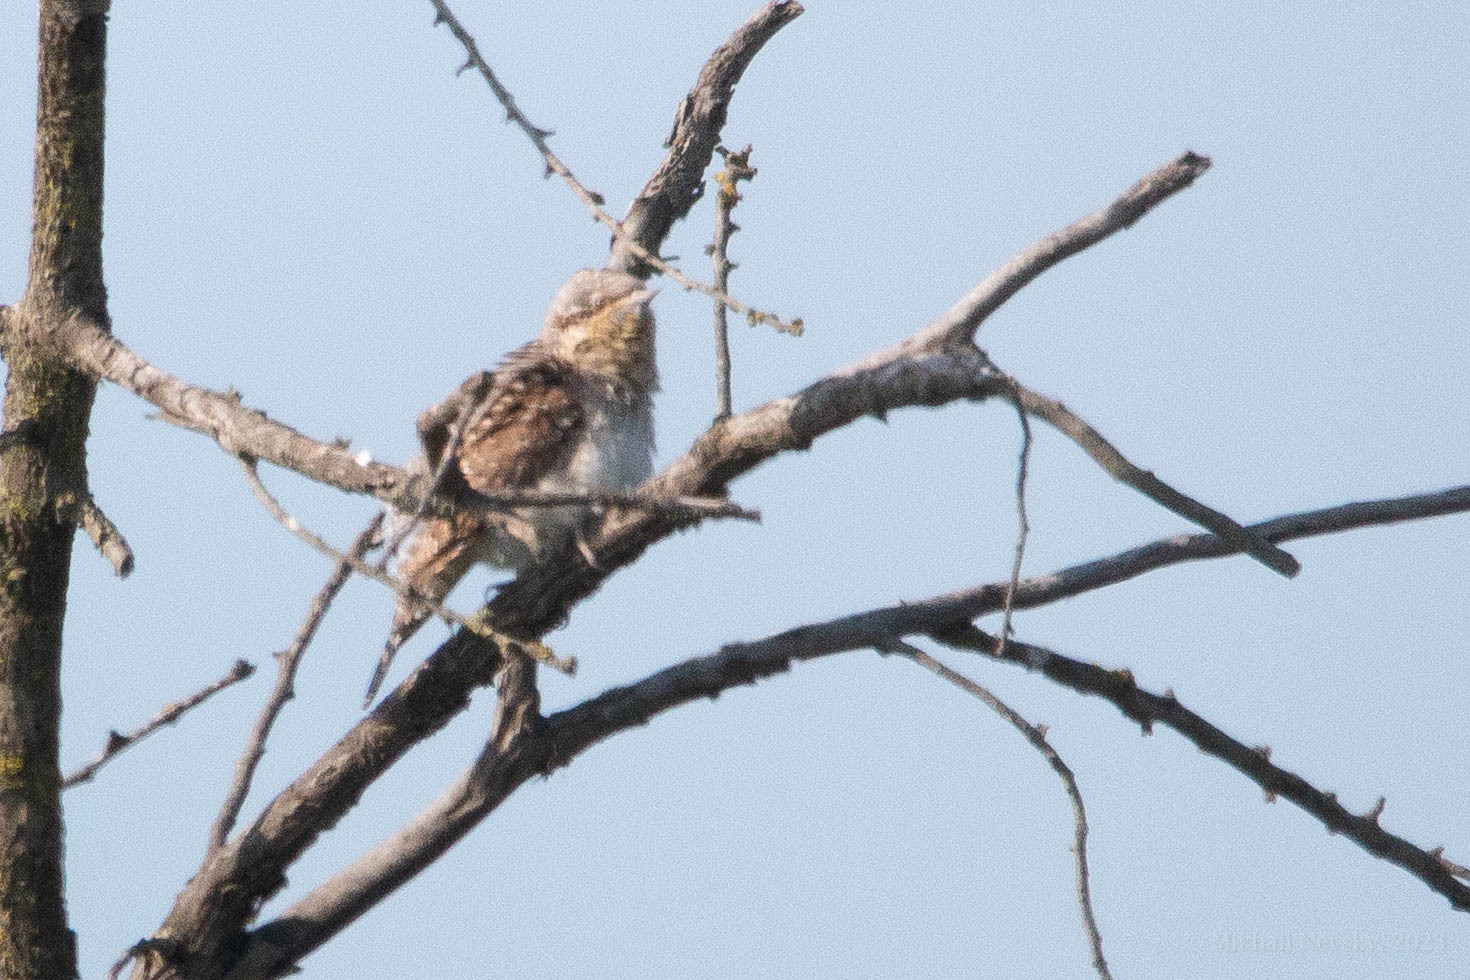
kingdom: Animalia
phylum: Chordata
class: Aves
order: Piciformes
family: Picidae
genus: Jynx
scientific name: Jynx torquilla
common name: Eurasian wryneck
